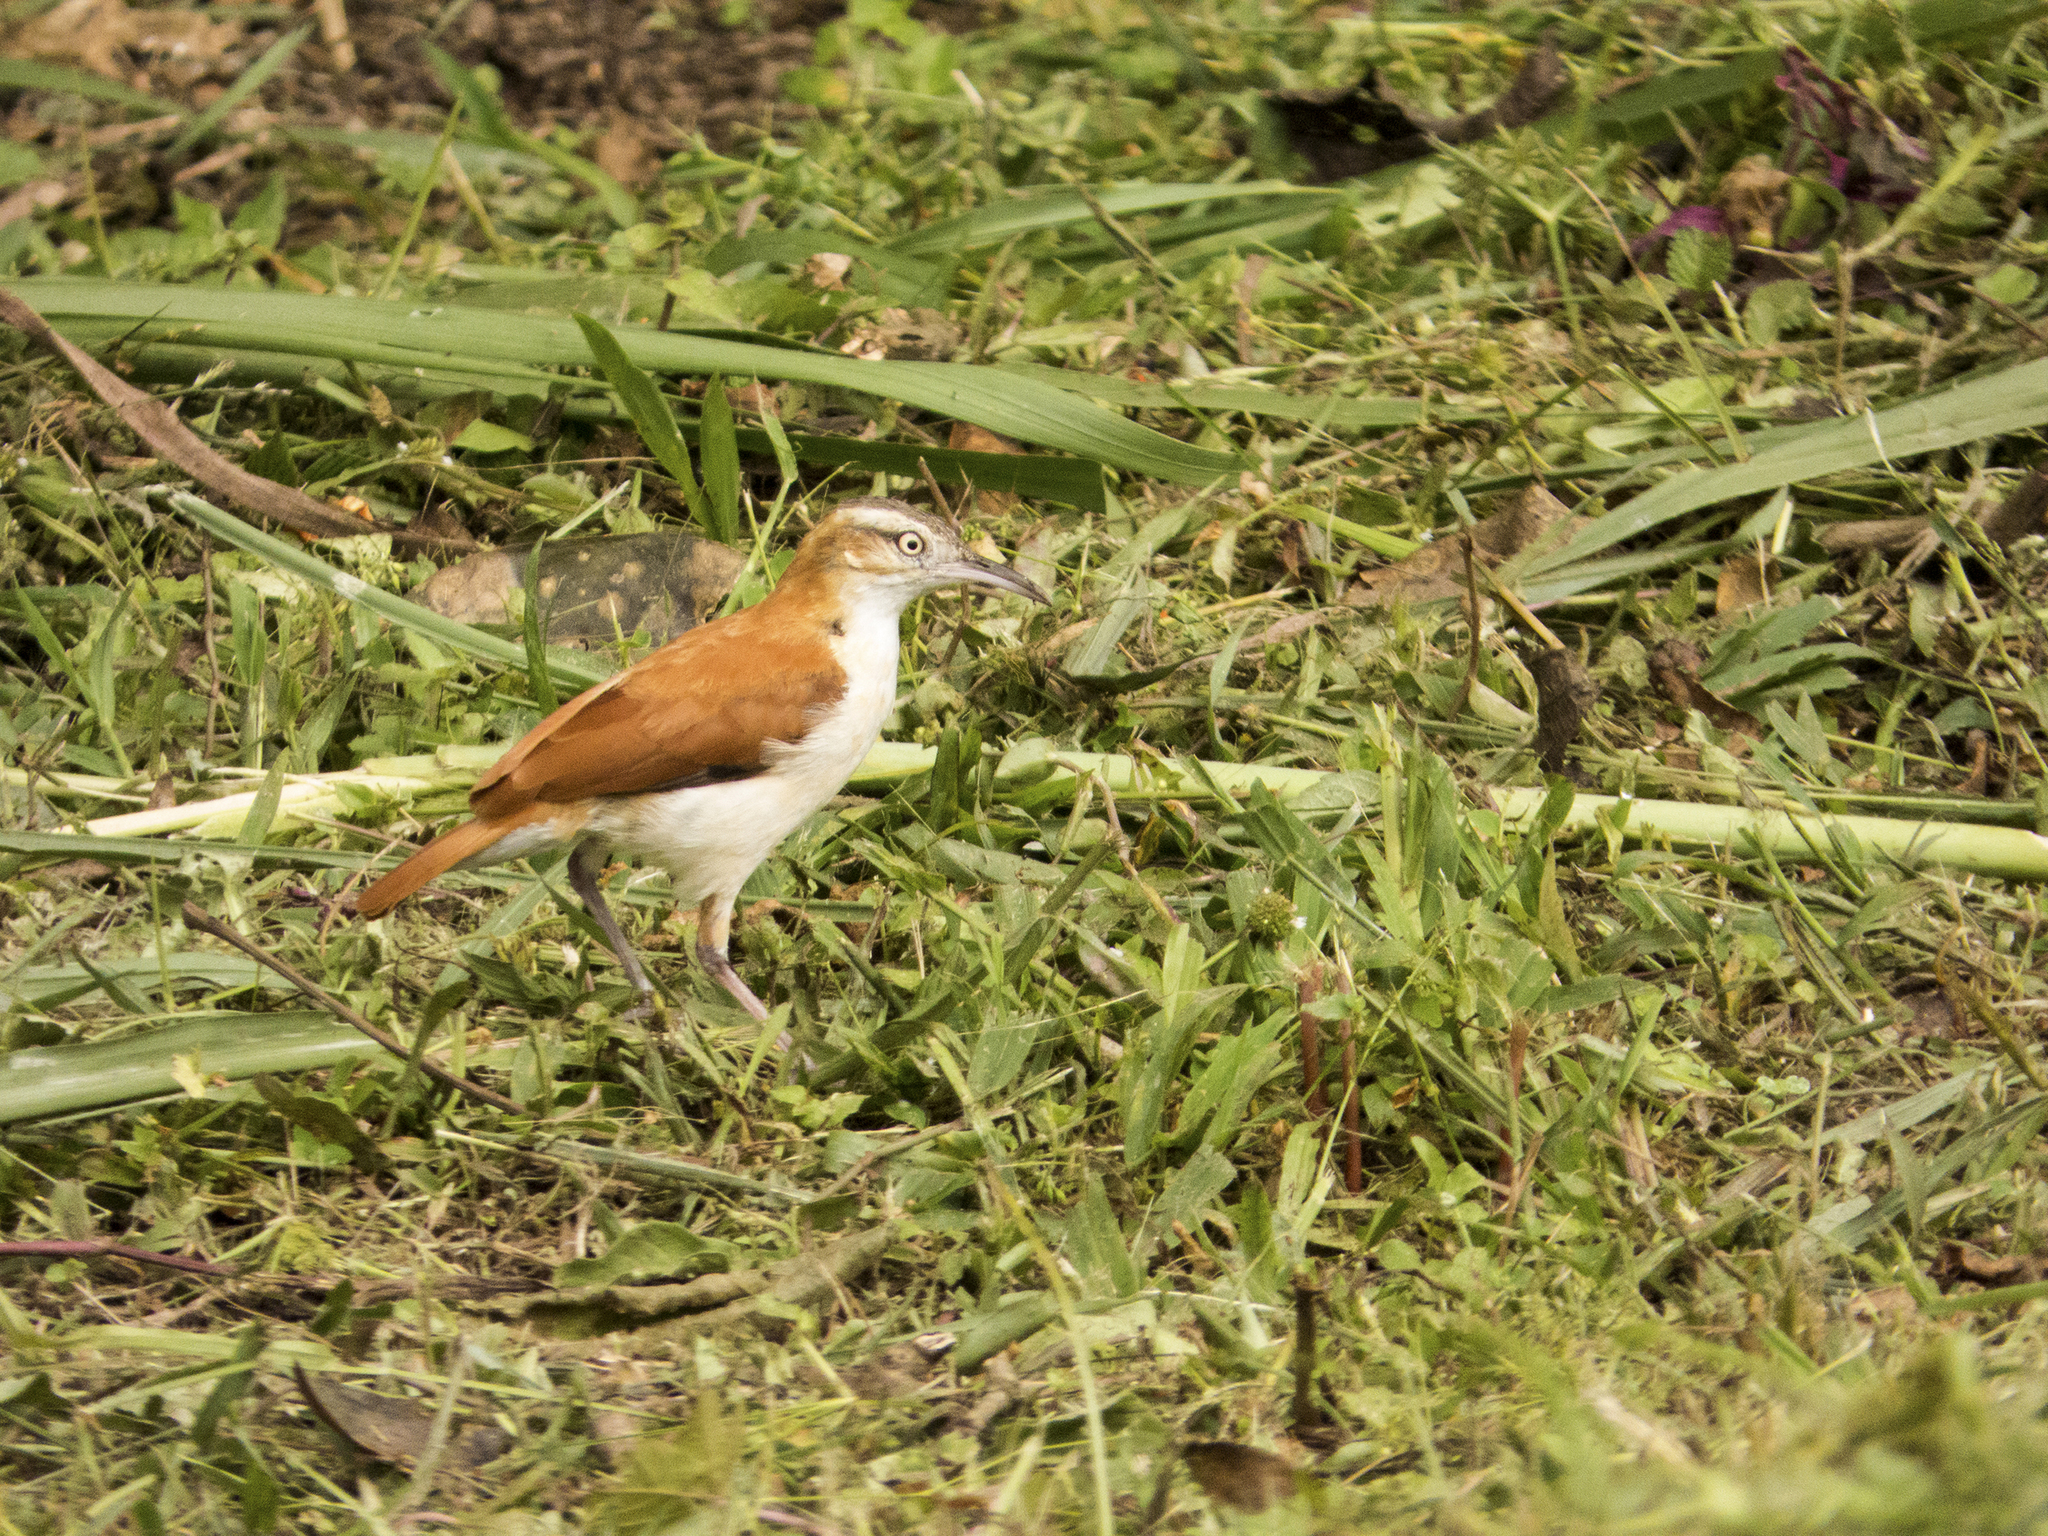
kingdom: Animalia
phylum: Chordata
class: Aves
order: Passeriformes
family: Furnariidae
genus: Furnarius
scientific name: Furnarius leucopus
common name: Pale-legged hornero
